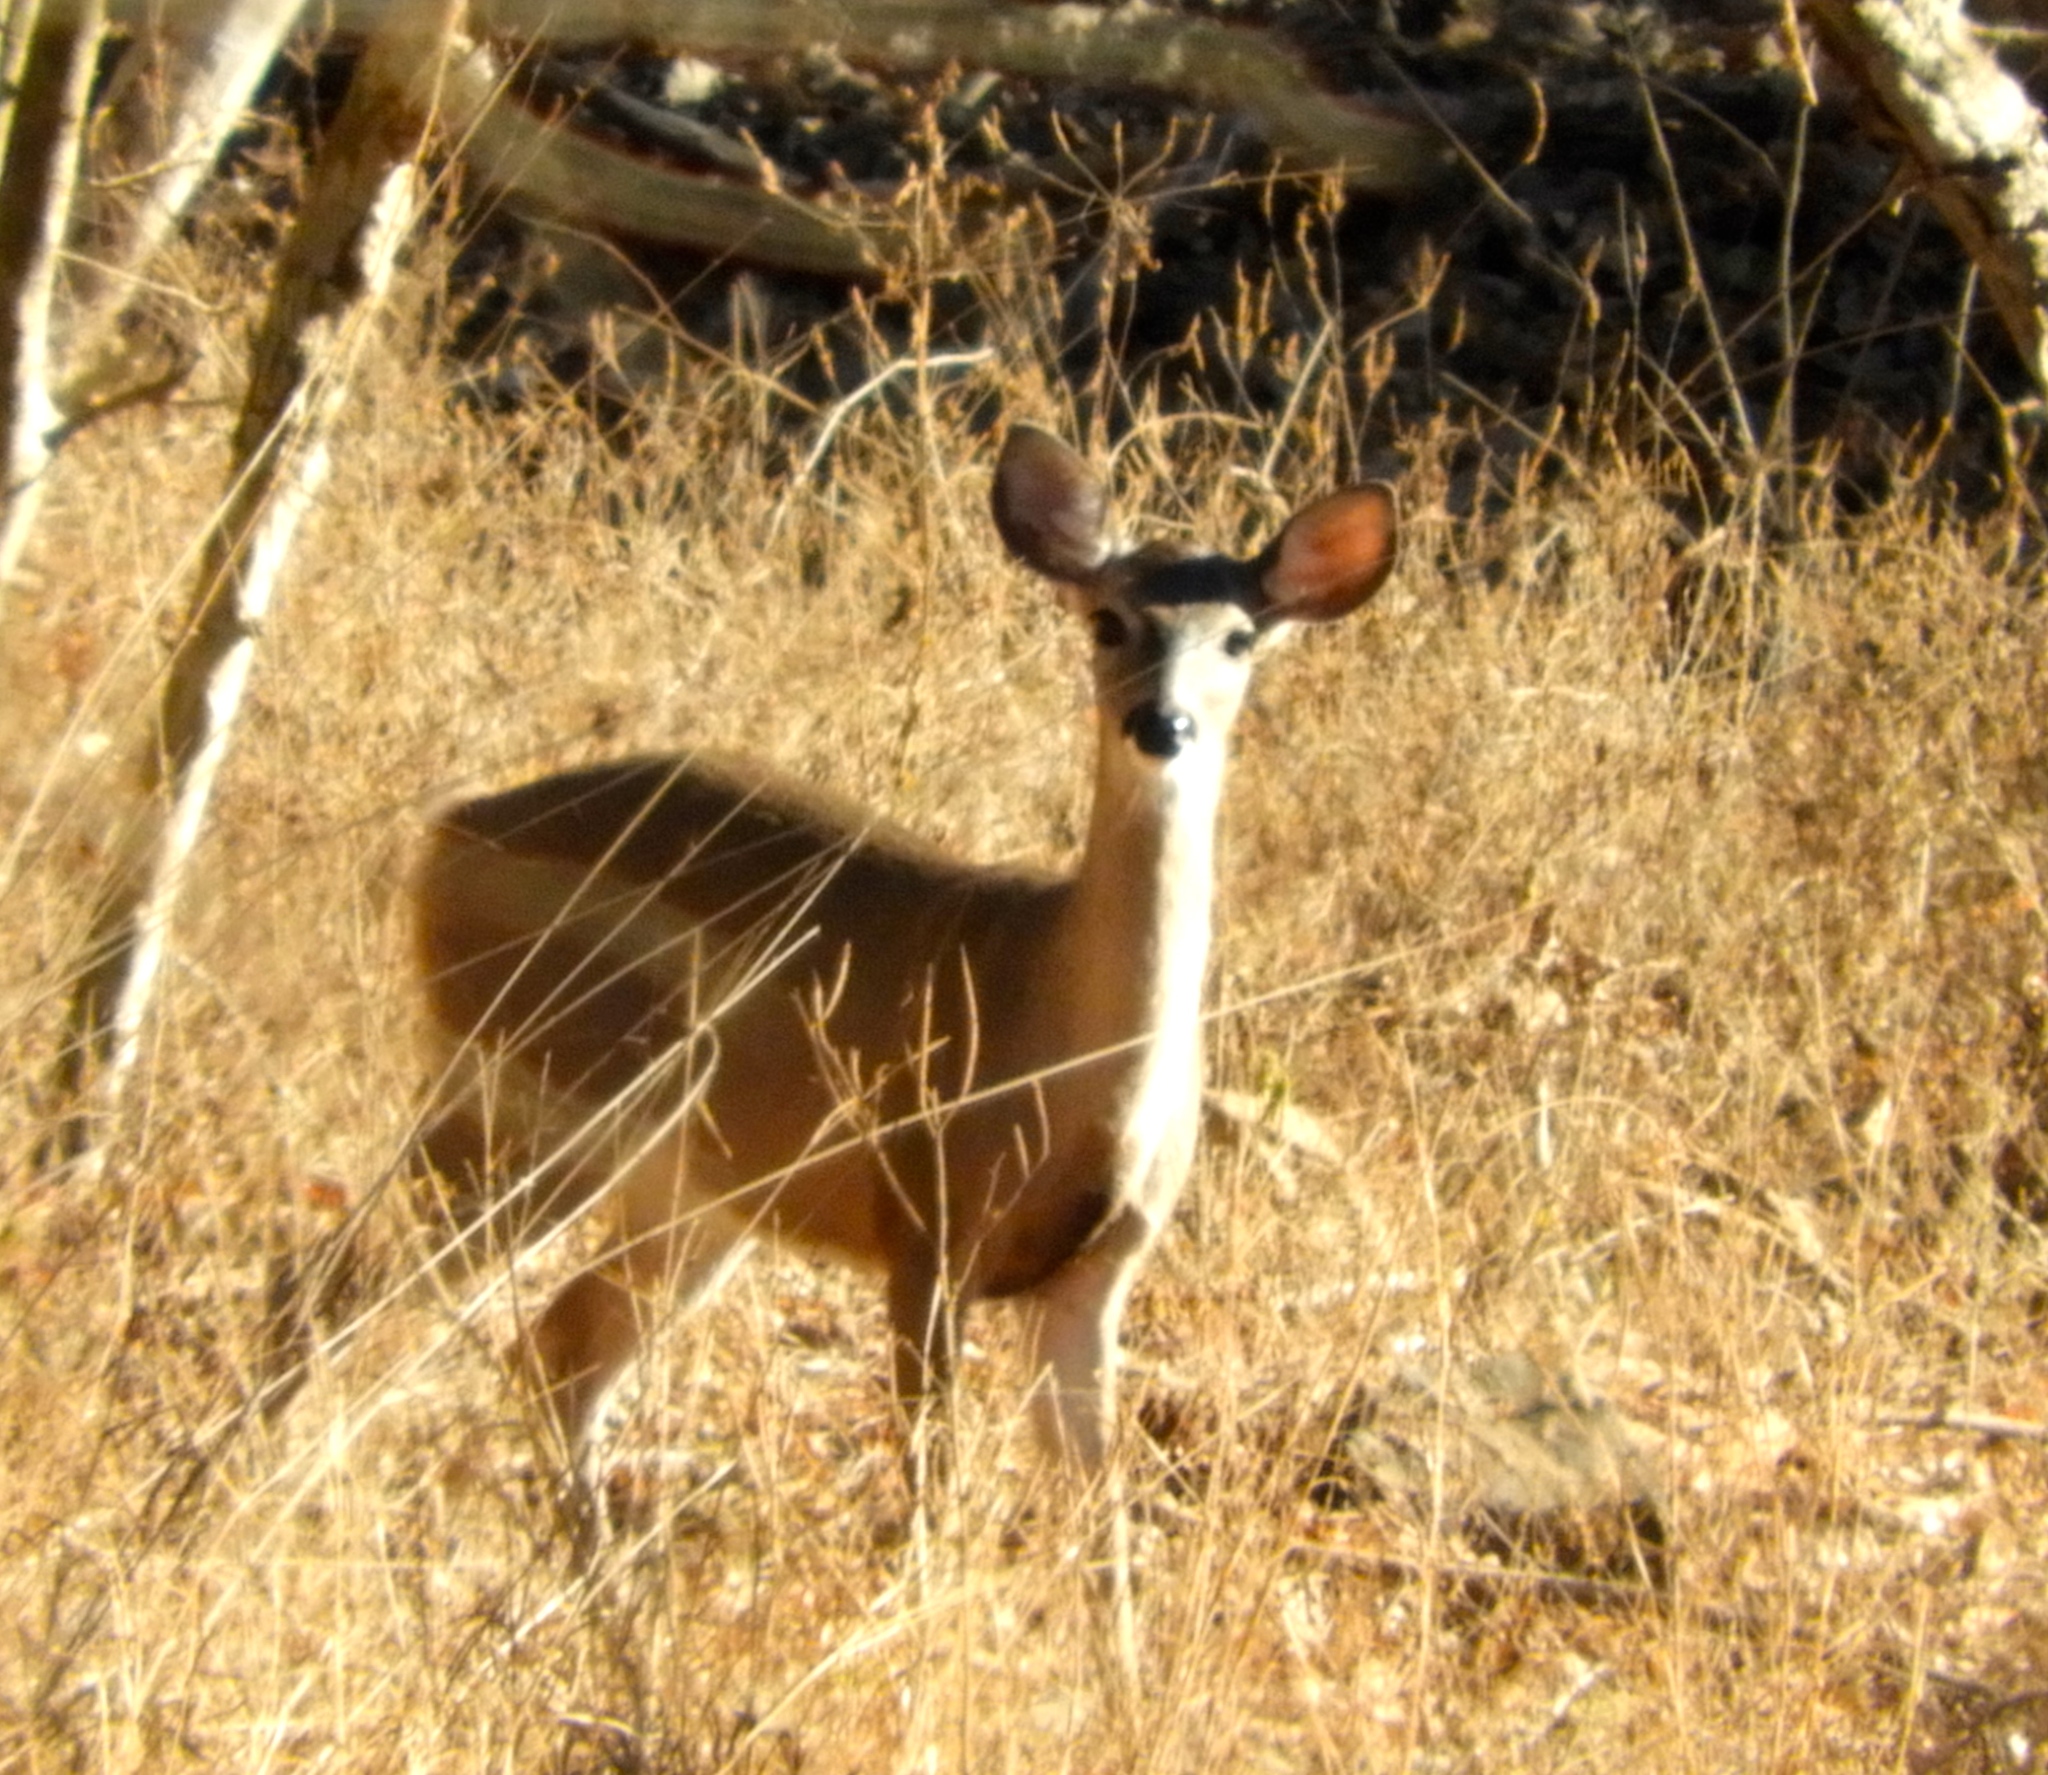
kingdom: Animalia
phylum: Chordata
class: Mammalia
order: Artiodactyla
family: Cervidae
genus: Odocoileus
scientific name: Odocoileus virginianus
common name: White-tailed deer
